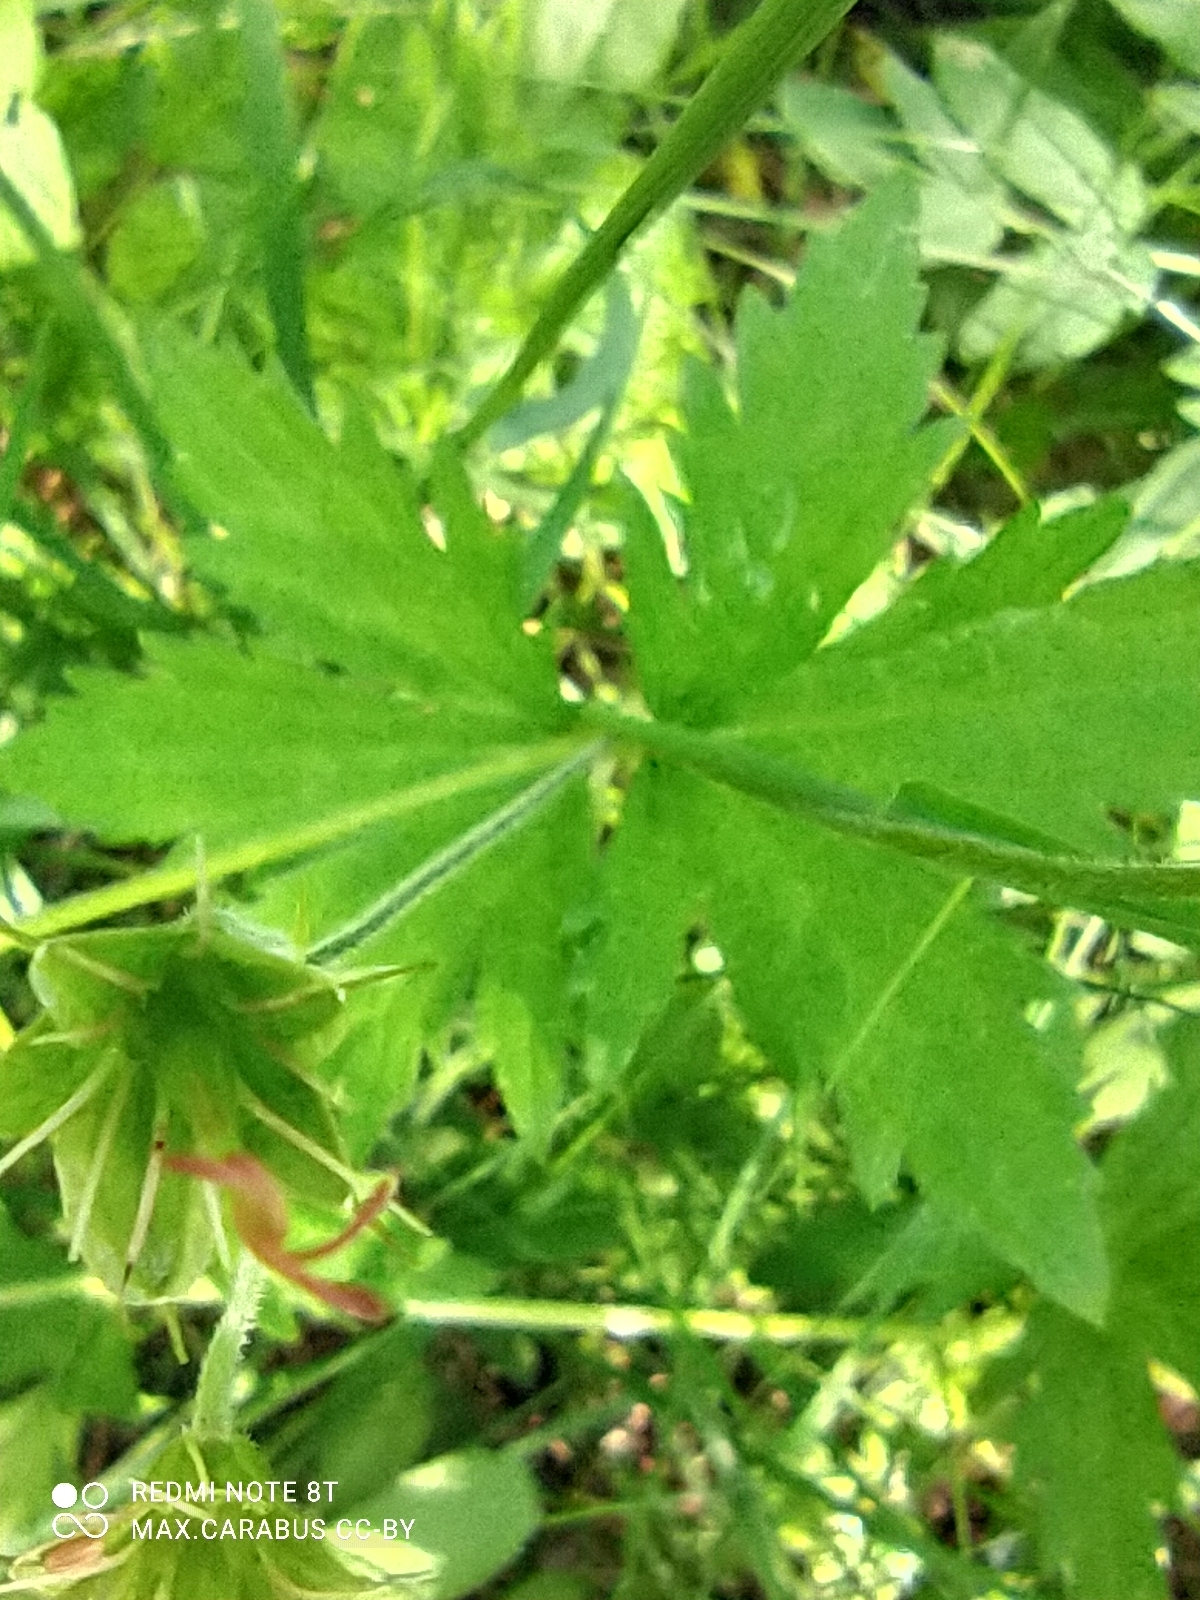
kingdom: Plantae
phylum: Tracheophyta
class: Magnoliopsida
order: Geraniales
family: Geraniaceae
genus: Geranium
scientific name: Geranium sylvaticum
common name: Wood crane's-bill
